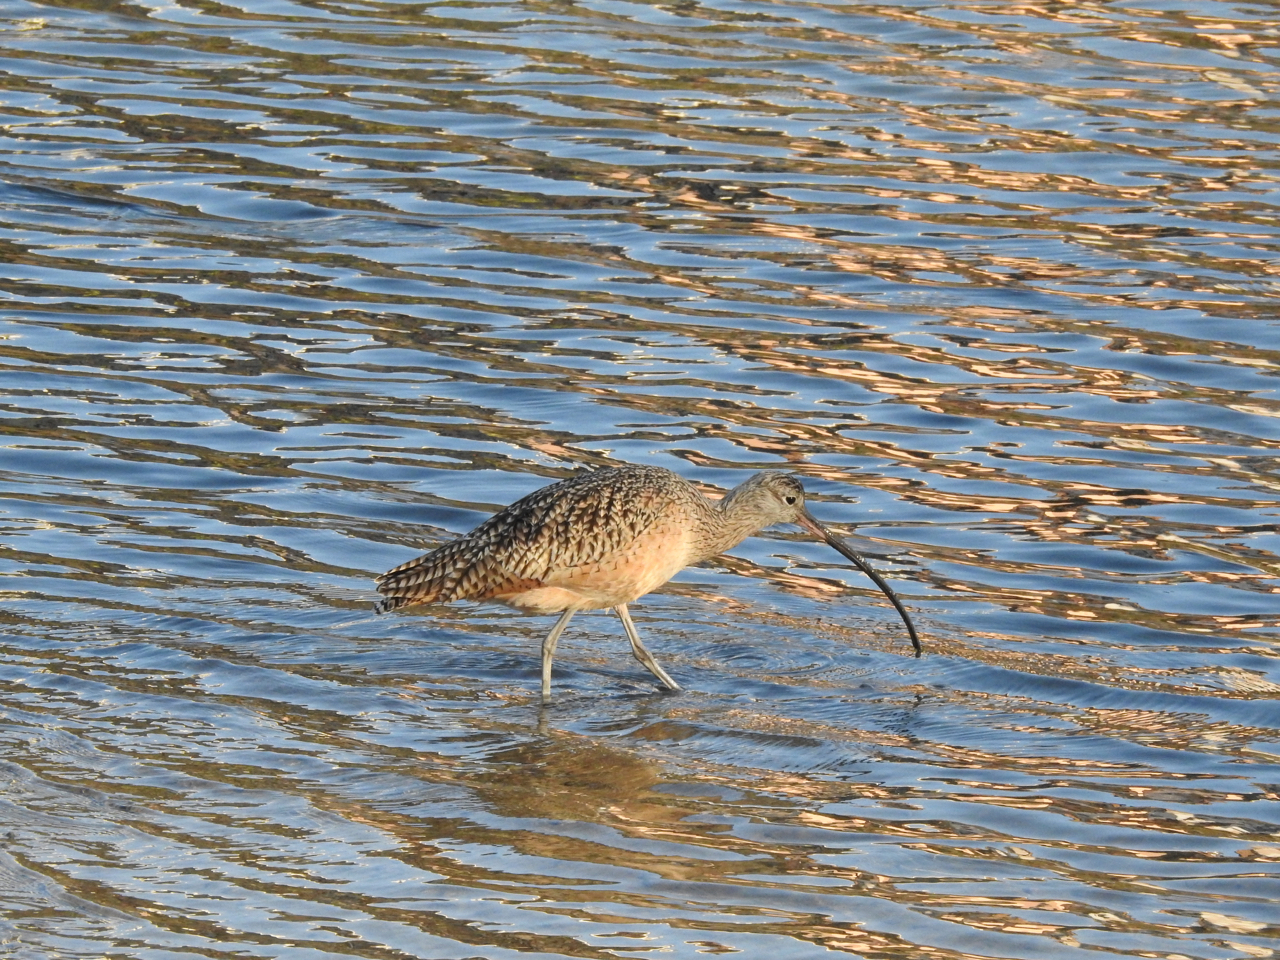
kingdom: Animalia
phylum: Chordata
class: Aves
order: Charadriiformes
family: Scolopacidae
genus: Numenius
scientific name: Numenius americanus
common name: Long-billed curlew
